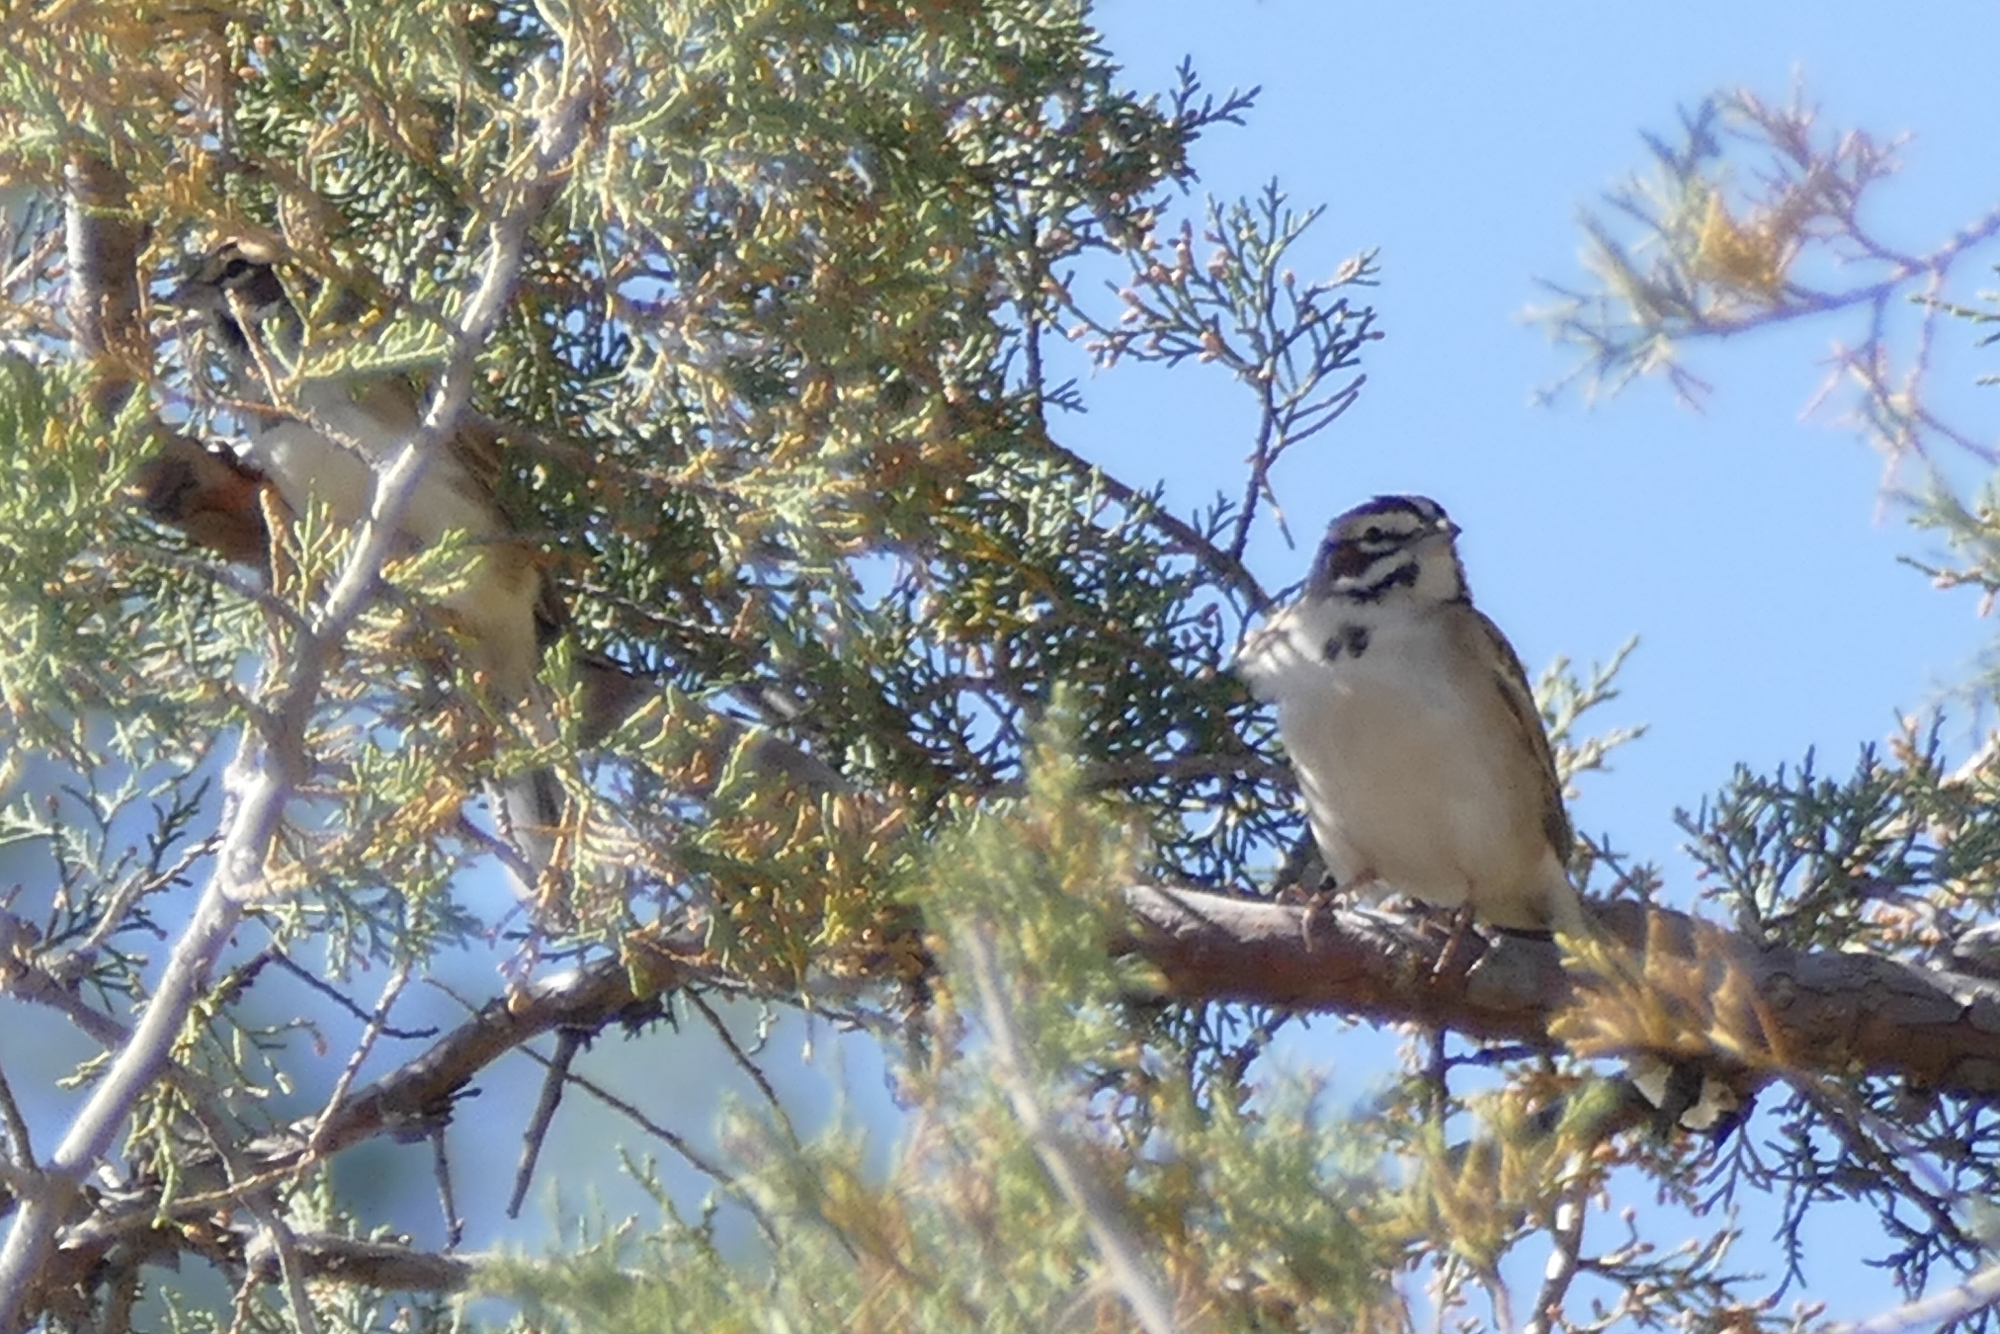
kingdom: Animalia
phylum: Chordata
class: Aves
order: Passeriformes
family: Passerellidae
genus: Chondestes
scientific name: Chondestes grammacus
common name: Lark sparrow
